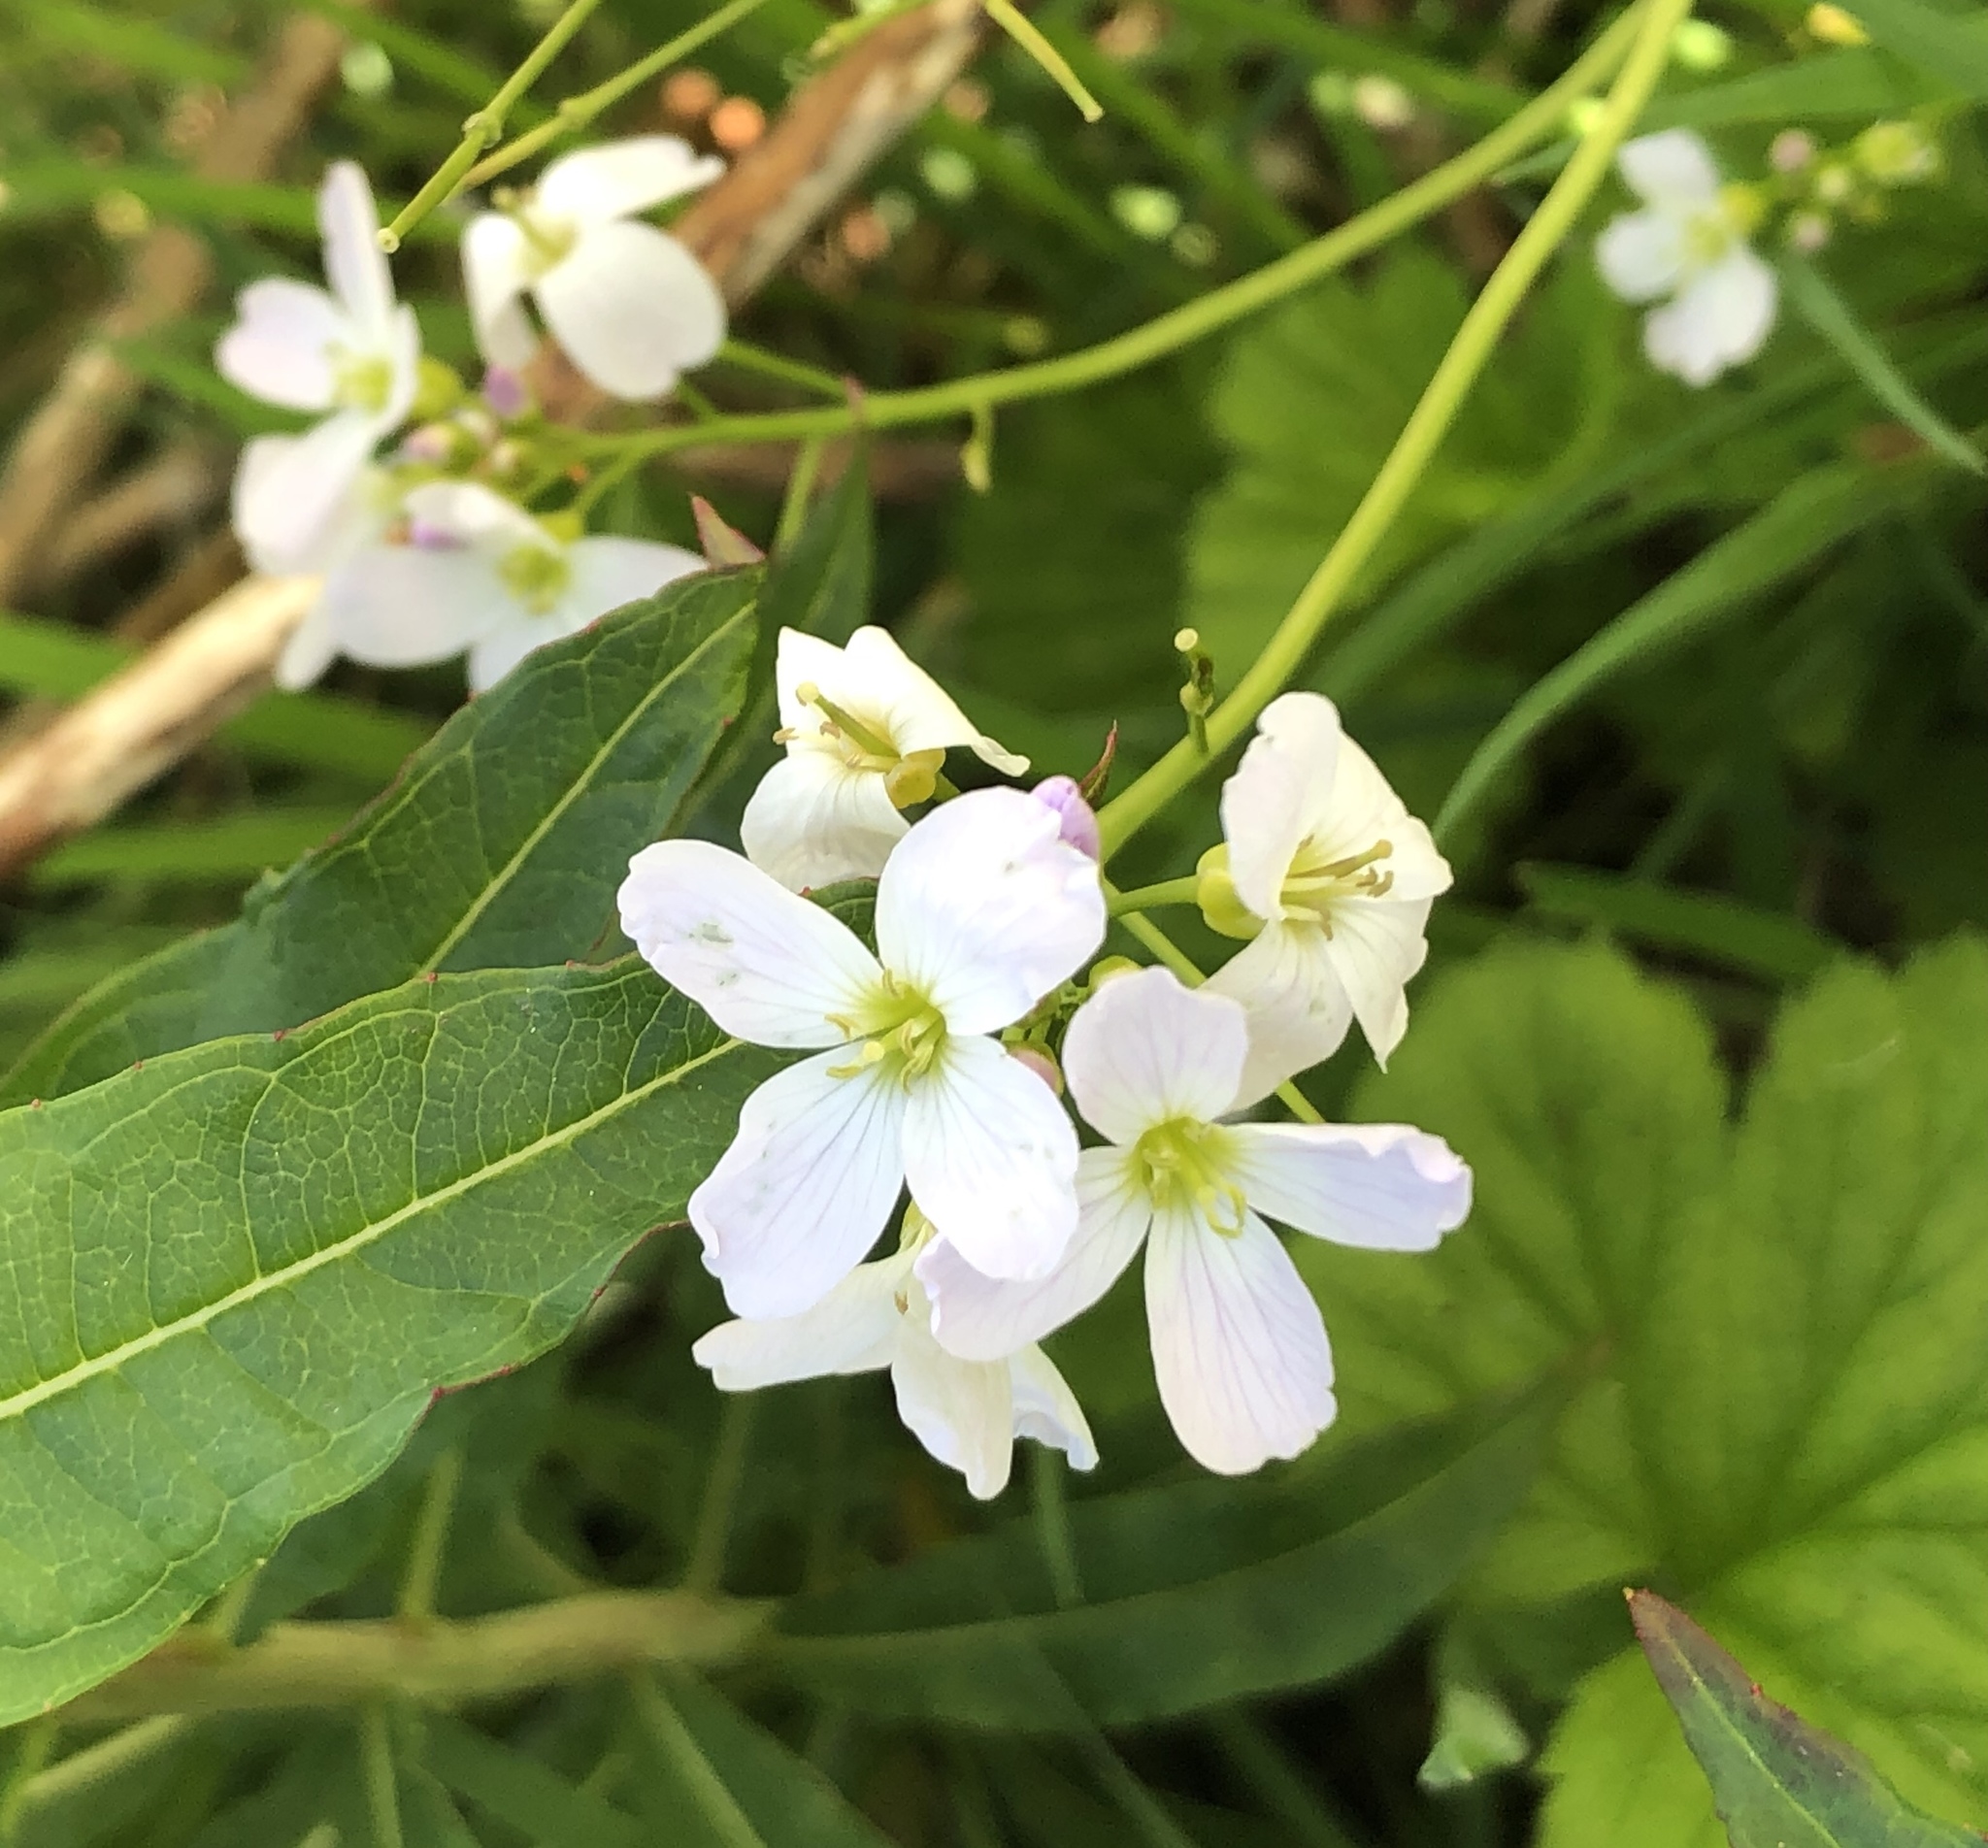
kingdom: Plantae
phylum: Tracheophyta
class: Magnoliopsida
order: Brassicales
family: Brassicaceae
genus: Cardamine
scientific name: Cardamine pratensis
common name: Cuckoo flower
